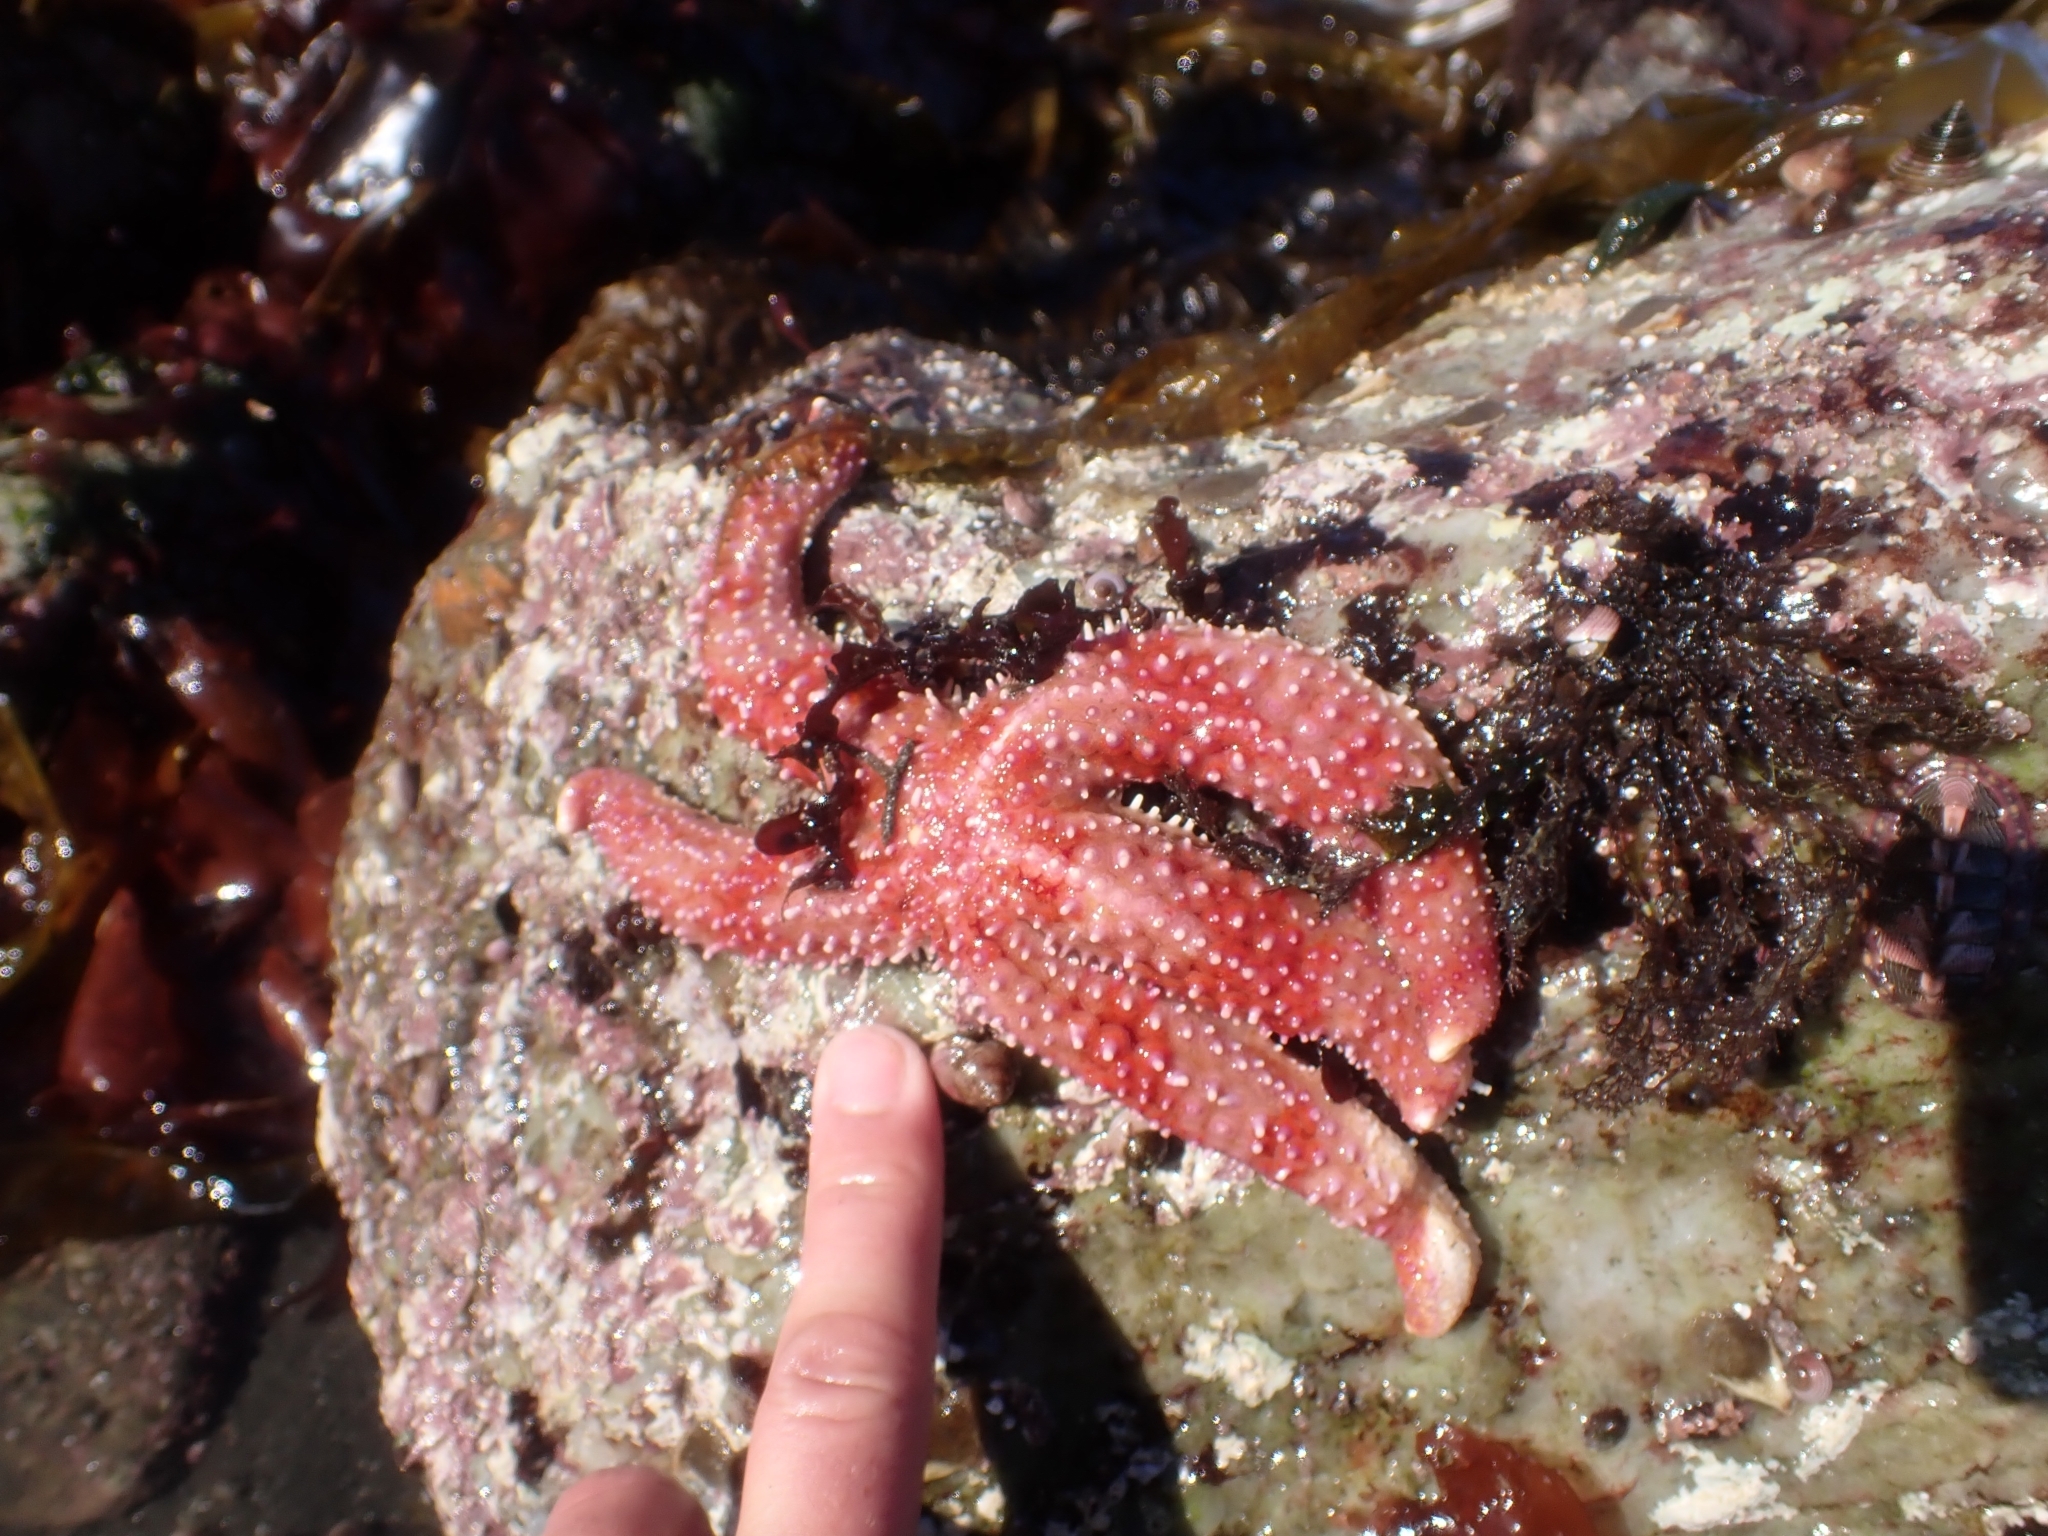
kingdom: Animalia
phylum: Echinodermata
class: Asteroidea
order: Forcipulatida
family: Asteriidae
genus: Orthasterias
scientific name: Orthasterias koehleri
